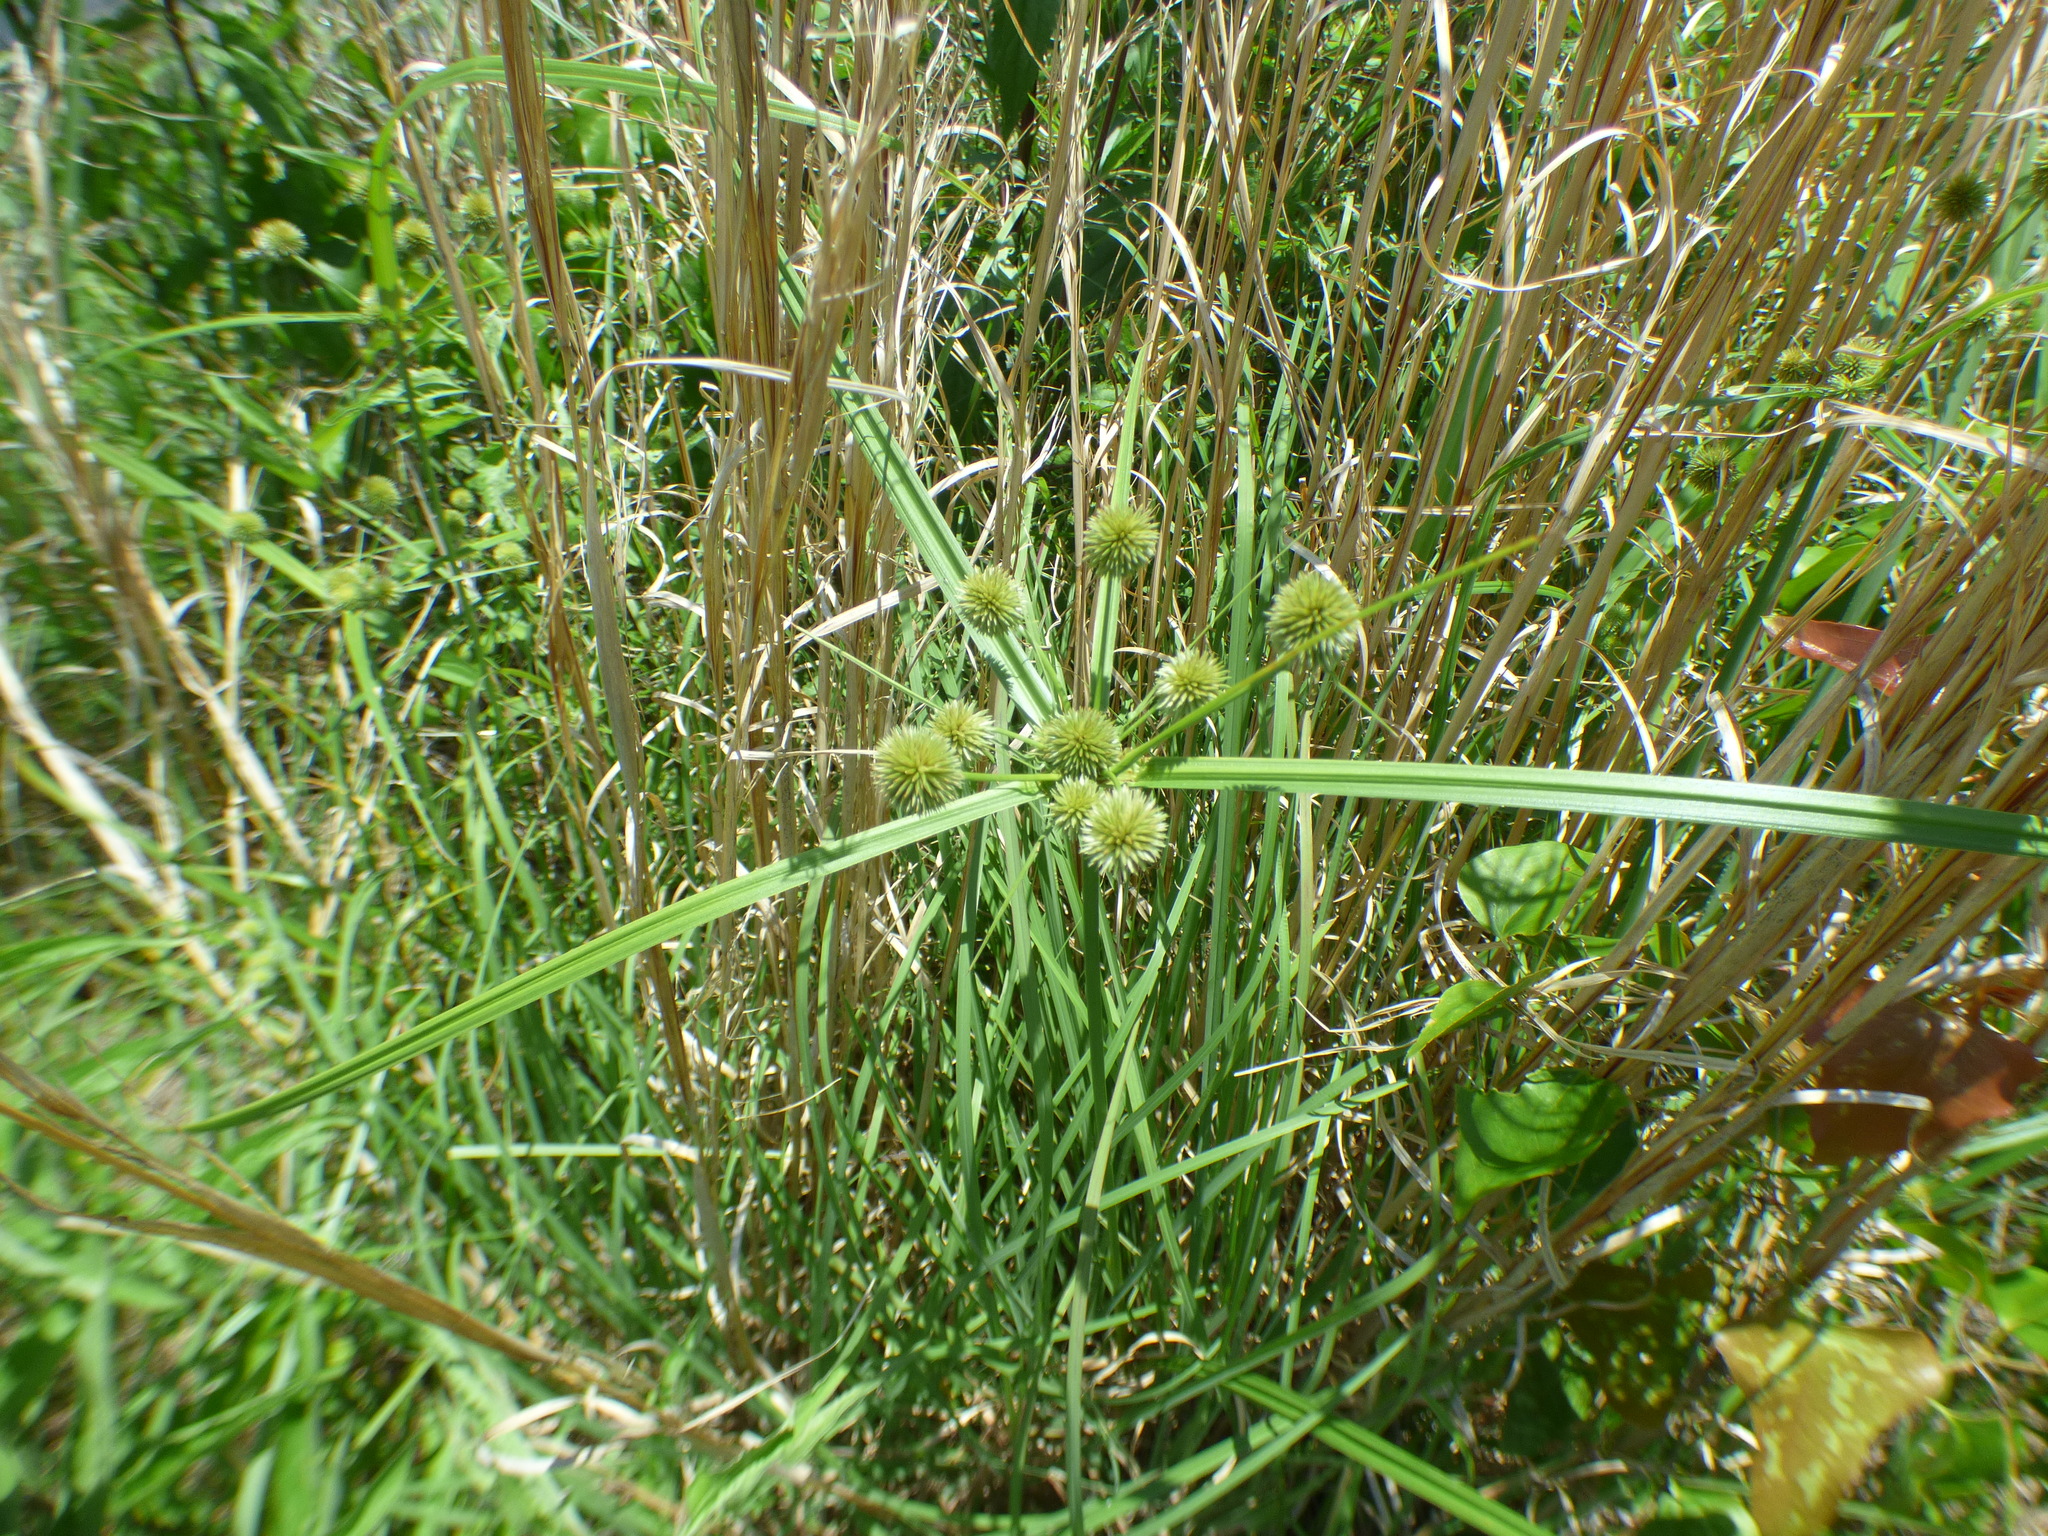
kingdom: Plantae
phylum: Tracheophyta
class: Liliopsida
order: Poales
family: Cyperaceae
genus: Cyperus
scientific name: Cyperus echinatus
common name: Teasel sedge
